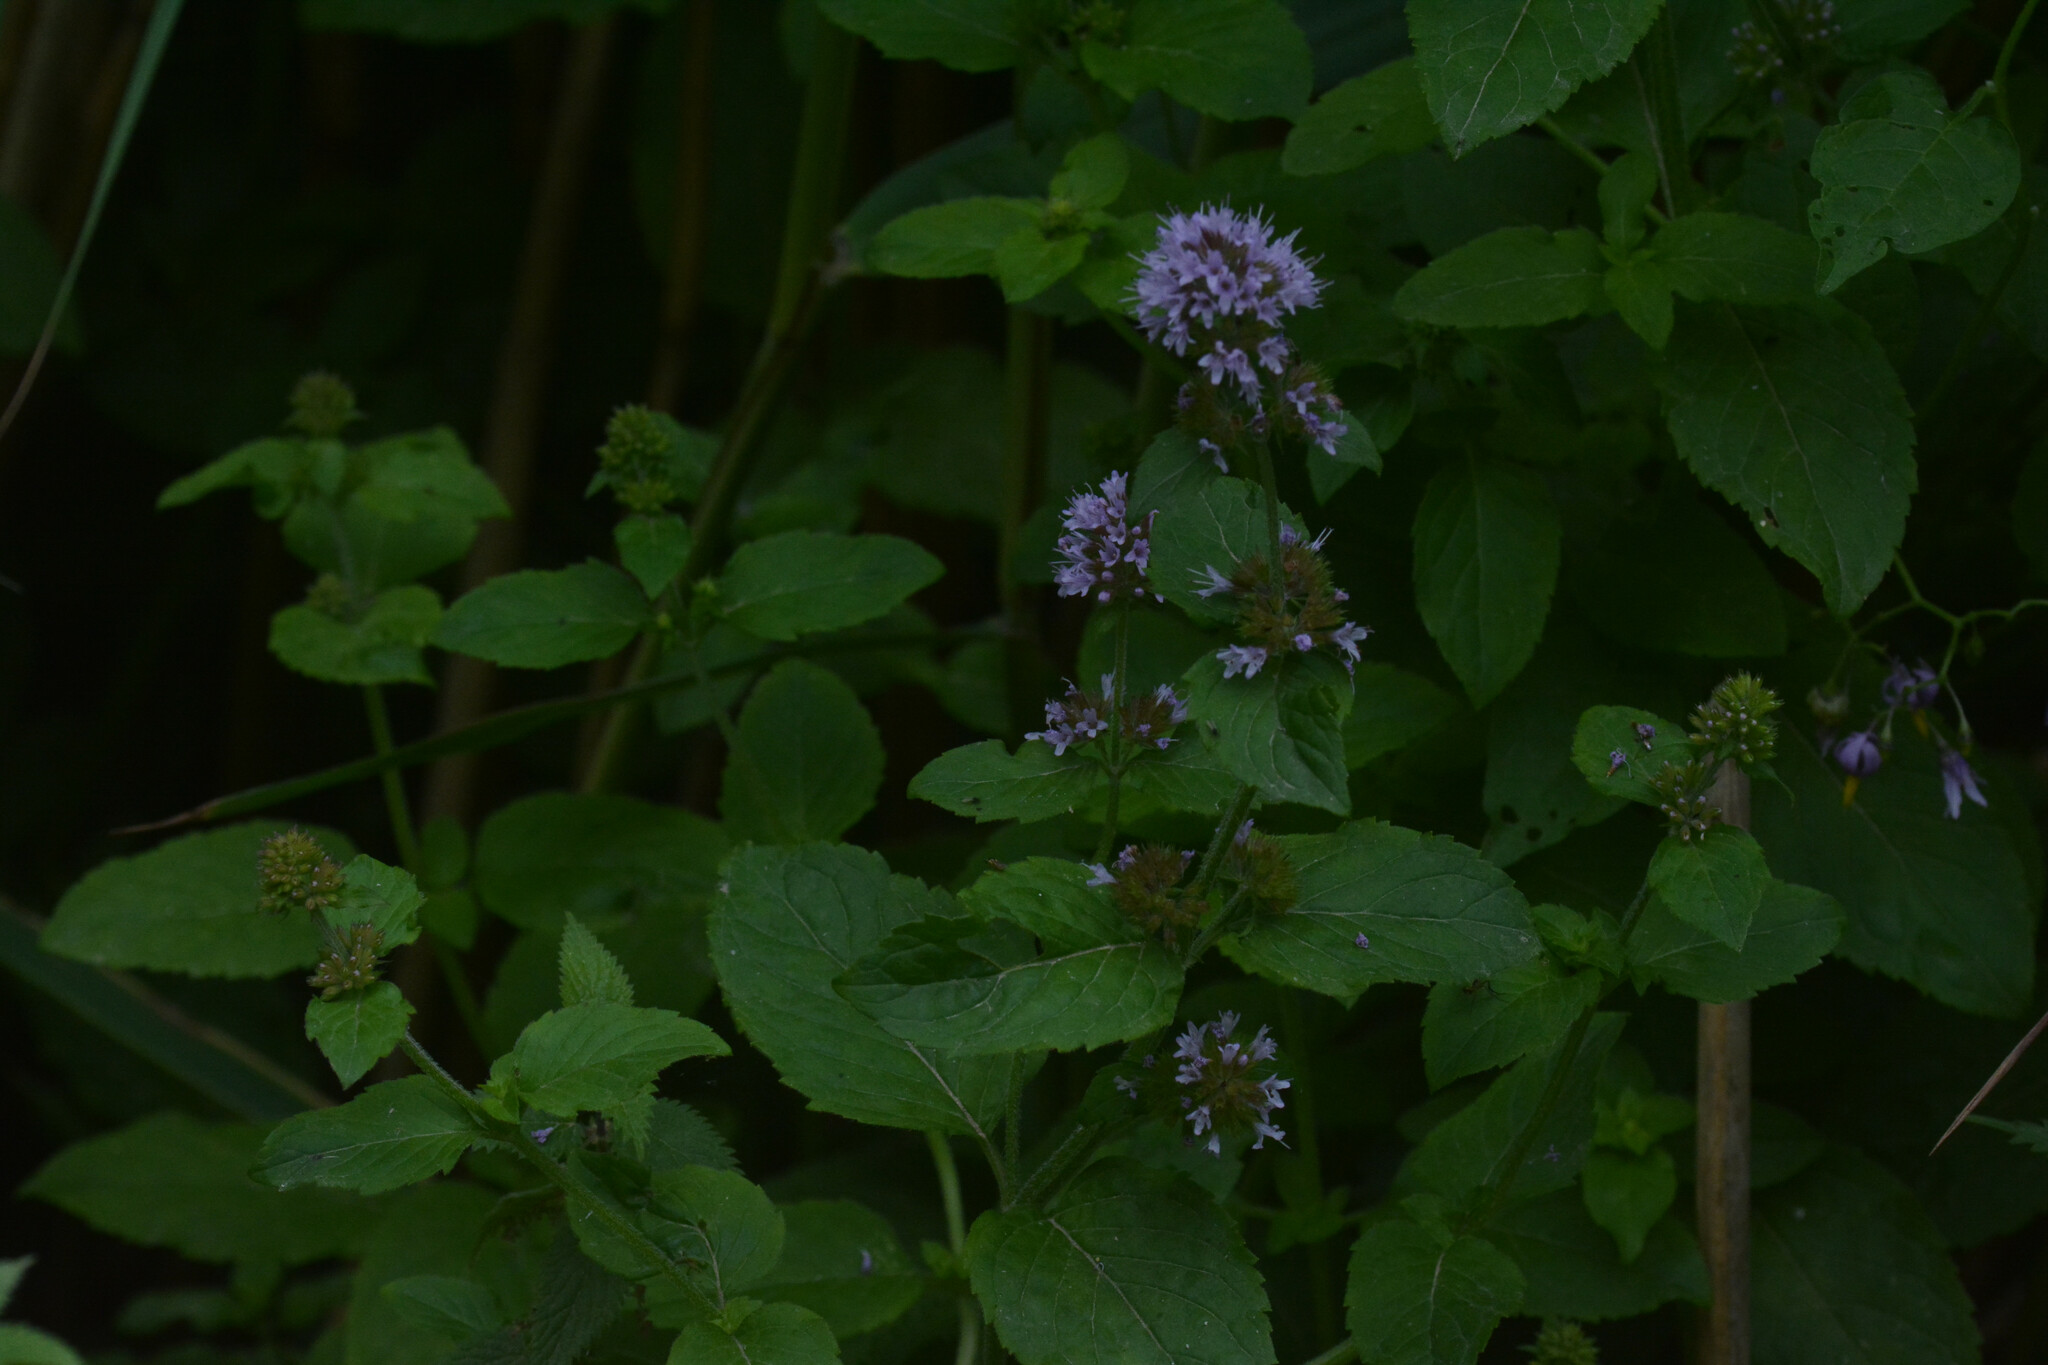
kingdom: Plantae
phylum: Tracheophyta
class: Magnoliopsida
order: Lamiales
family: Lamiaceae
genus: Mentha
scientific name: Mentha aquatica
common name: Water mint
